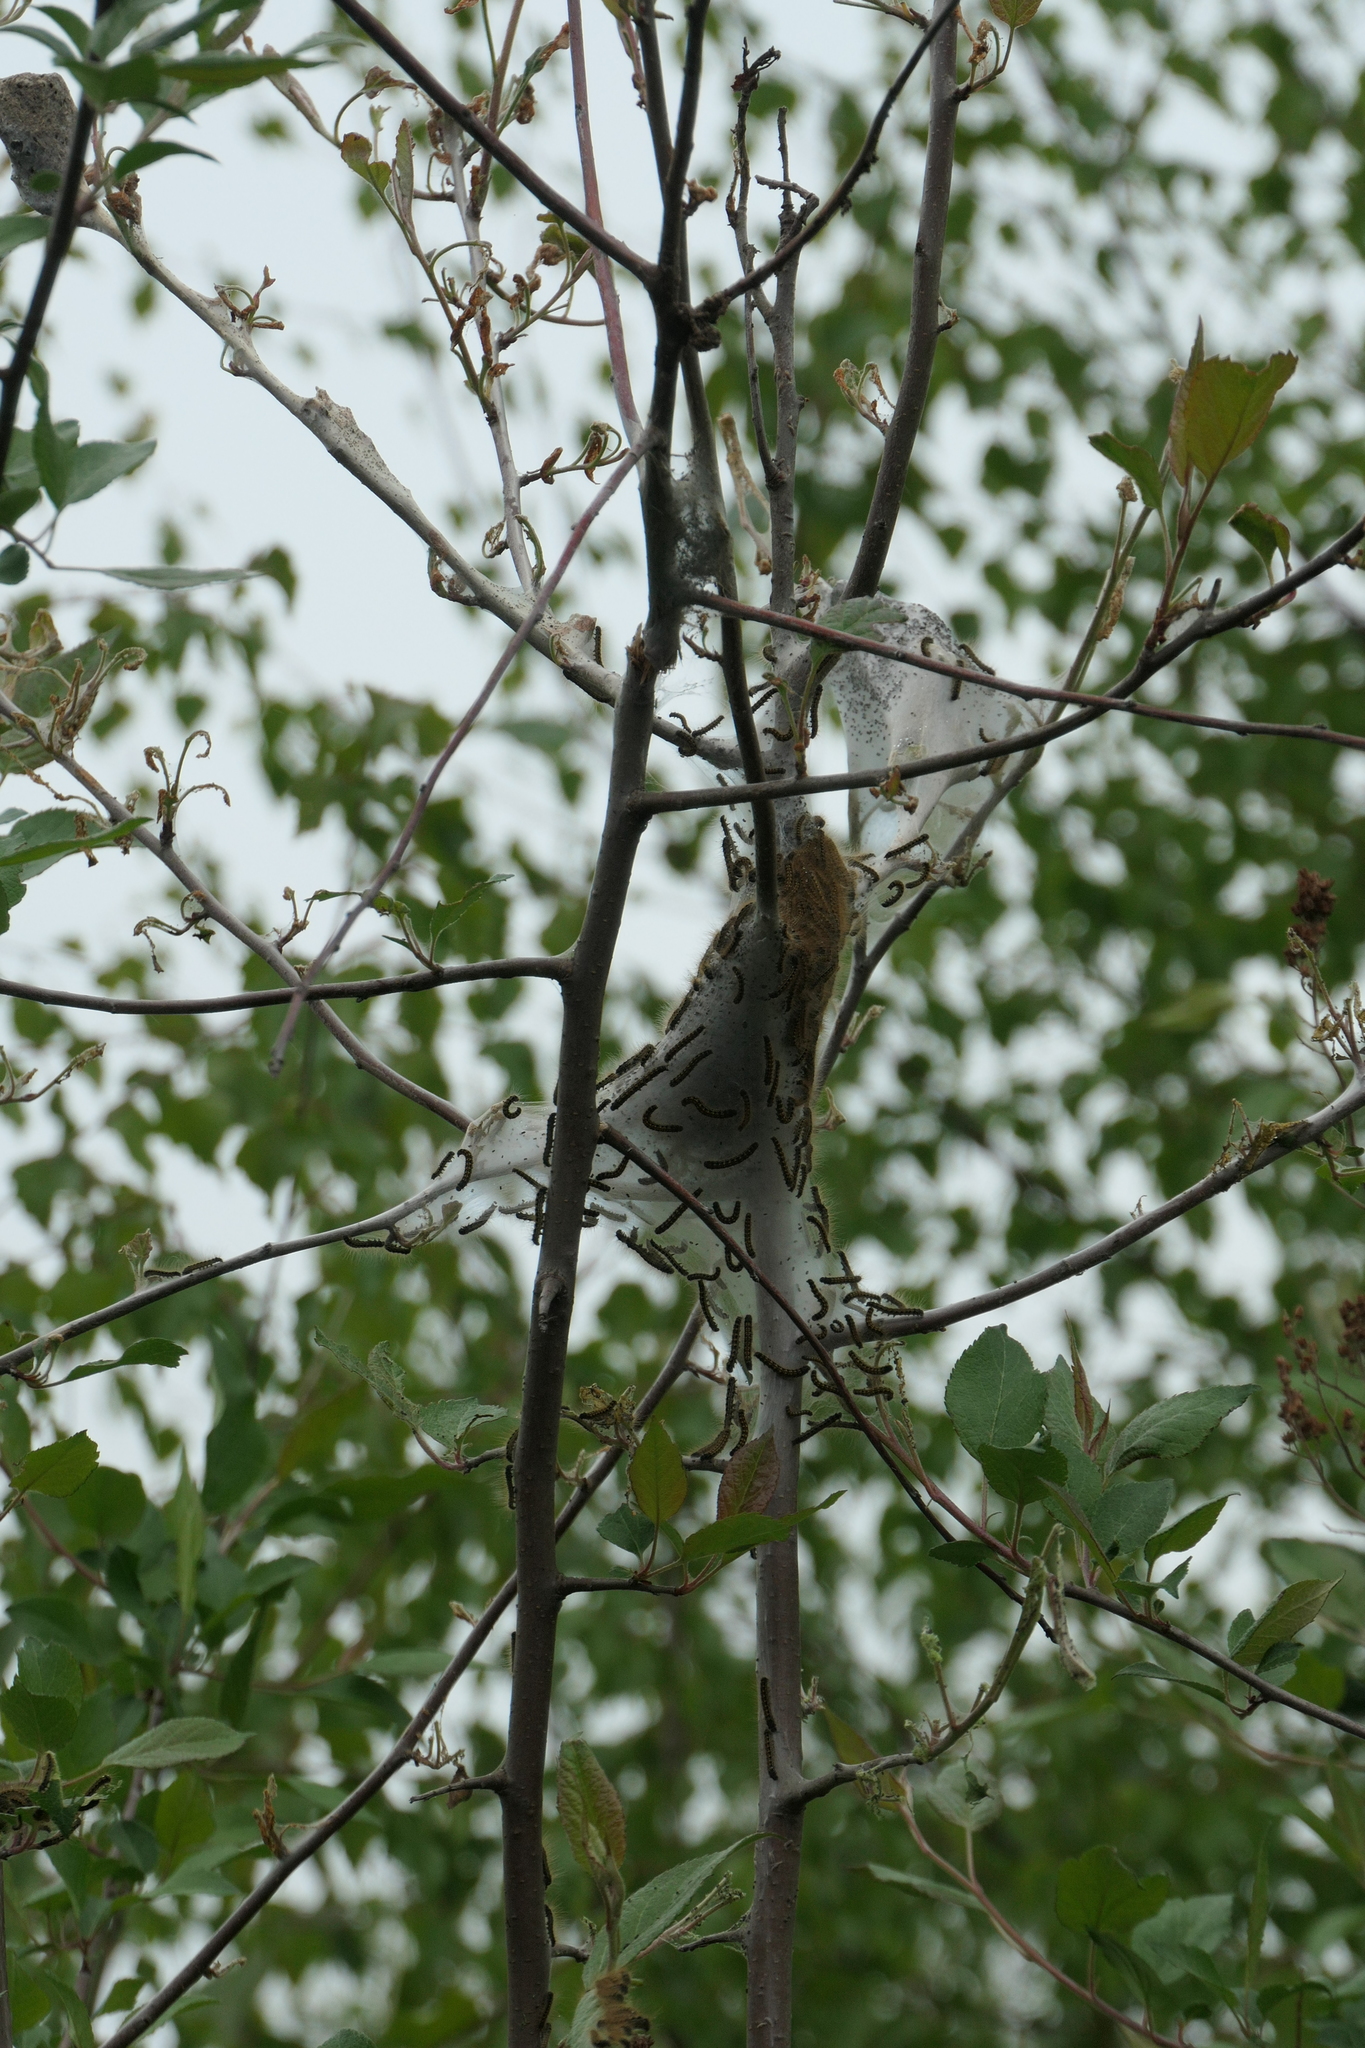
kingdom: Animalia
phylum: Arthropoda
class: Insecta
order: Lepidoptera
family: Lasiocampidae
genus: Malacosoma
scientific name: Malacosoma californica
